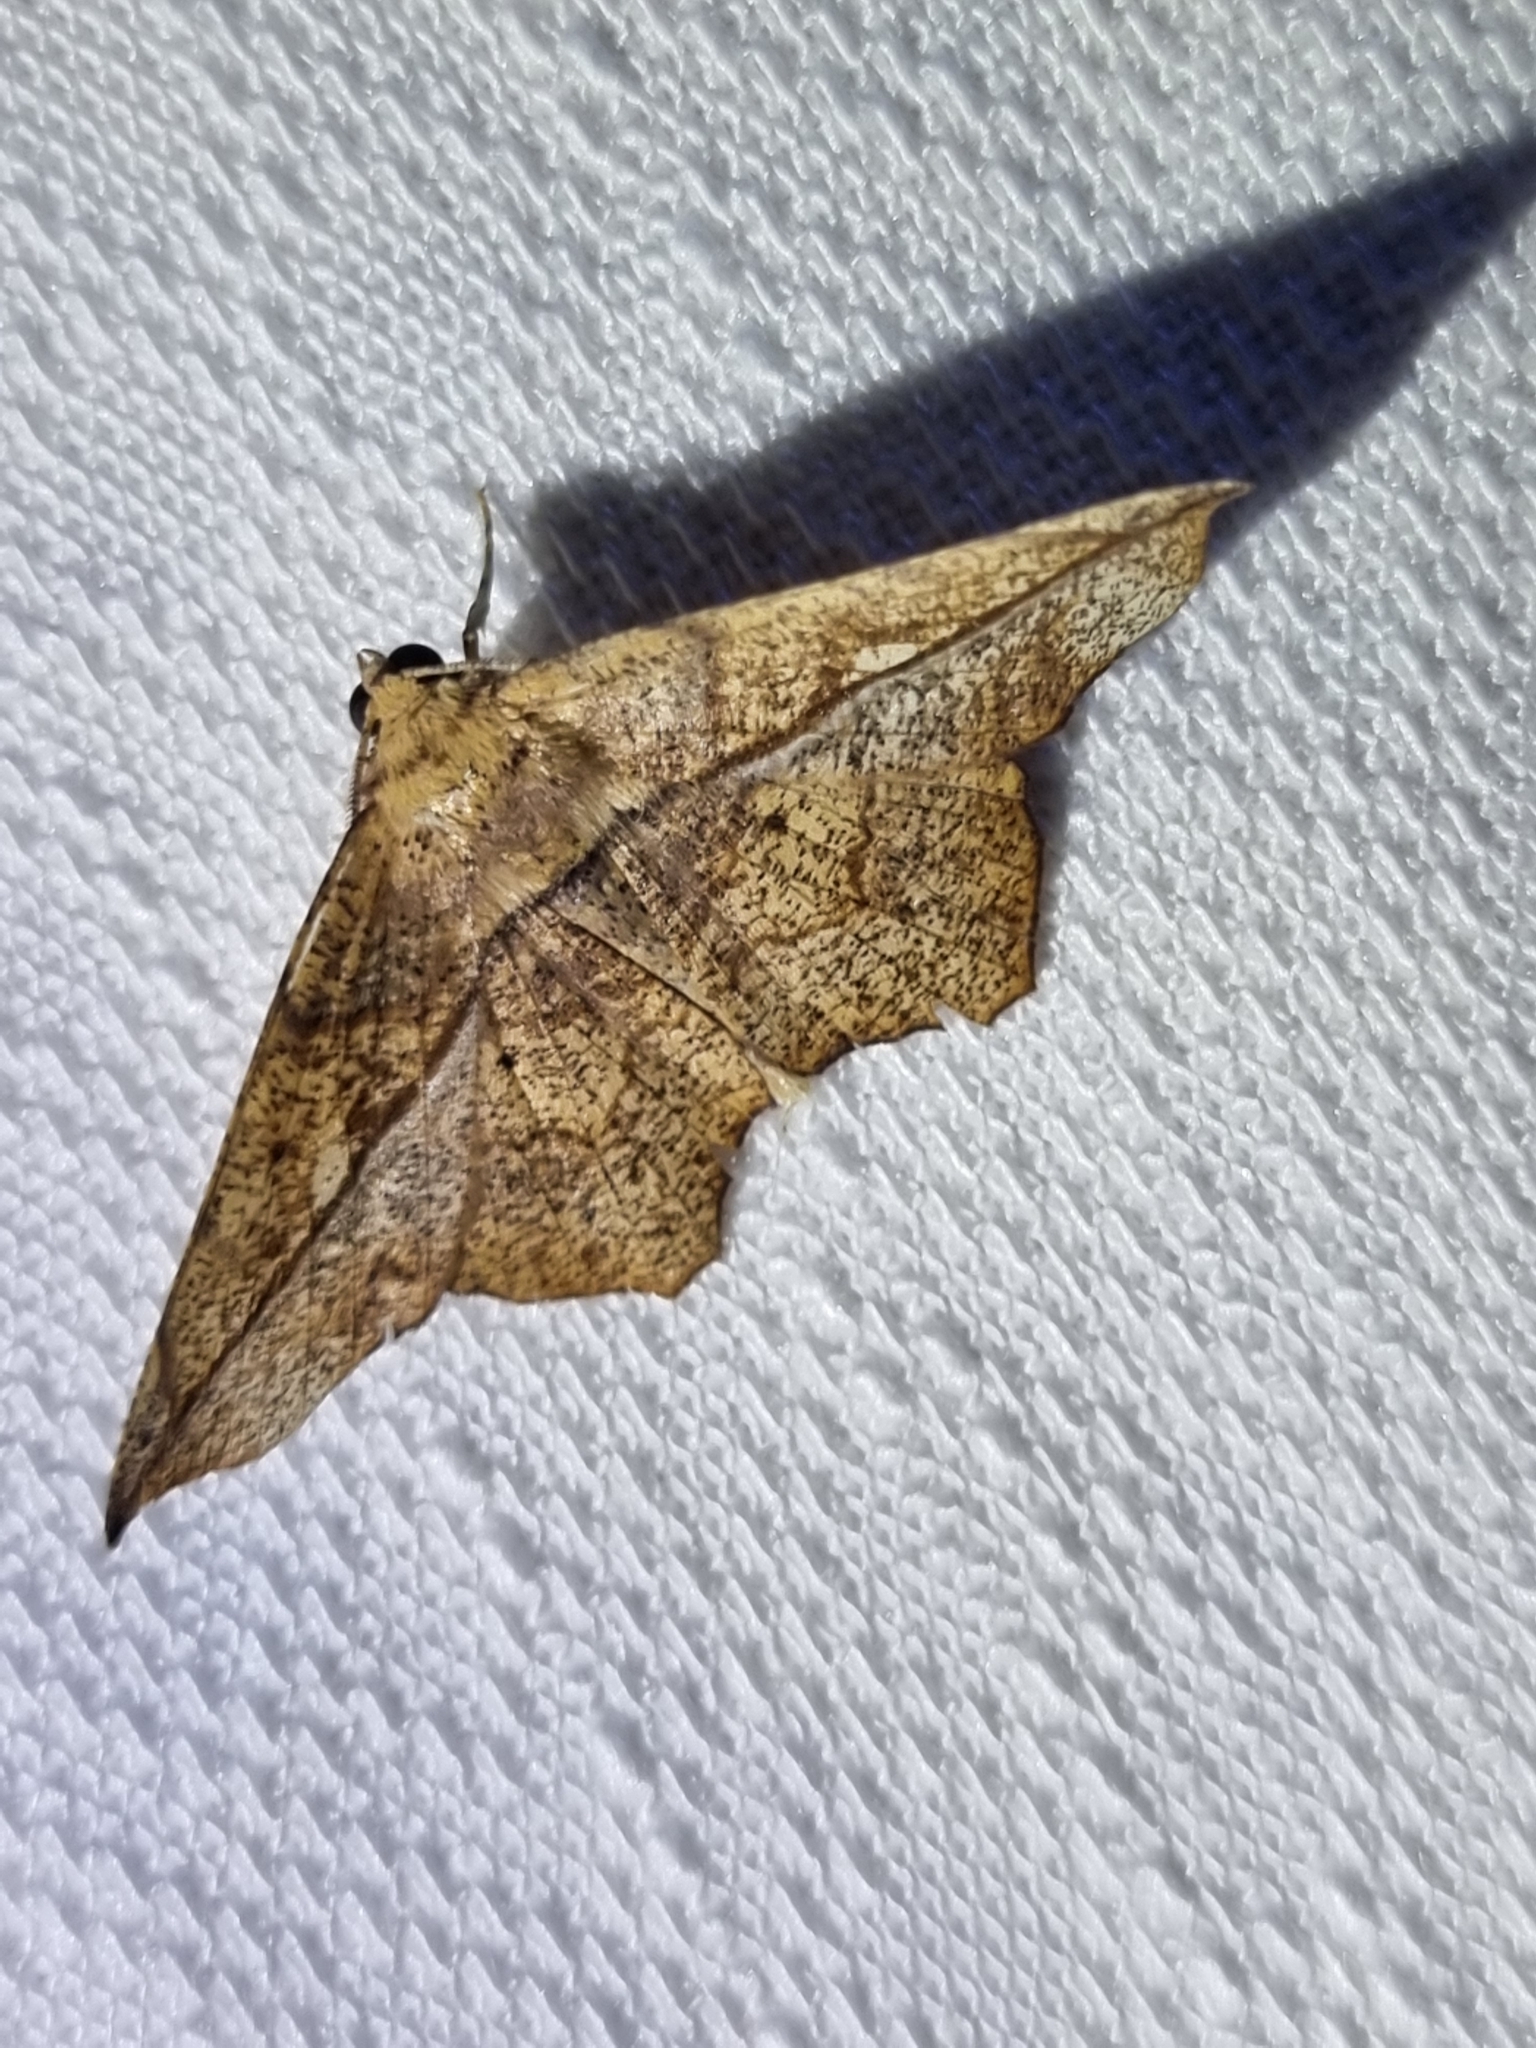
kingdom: Animalia
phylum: Arthropoda
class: Insecta
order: Lepidoptera
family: Geometridae
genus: Polyacme
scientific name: Polyacme dissimilis
